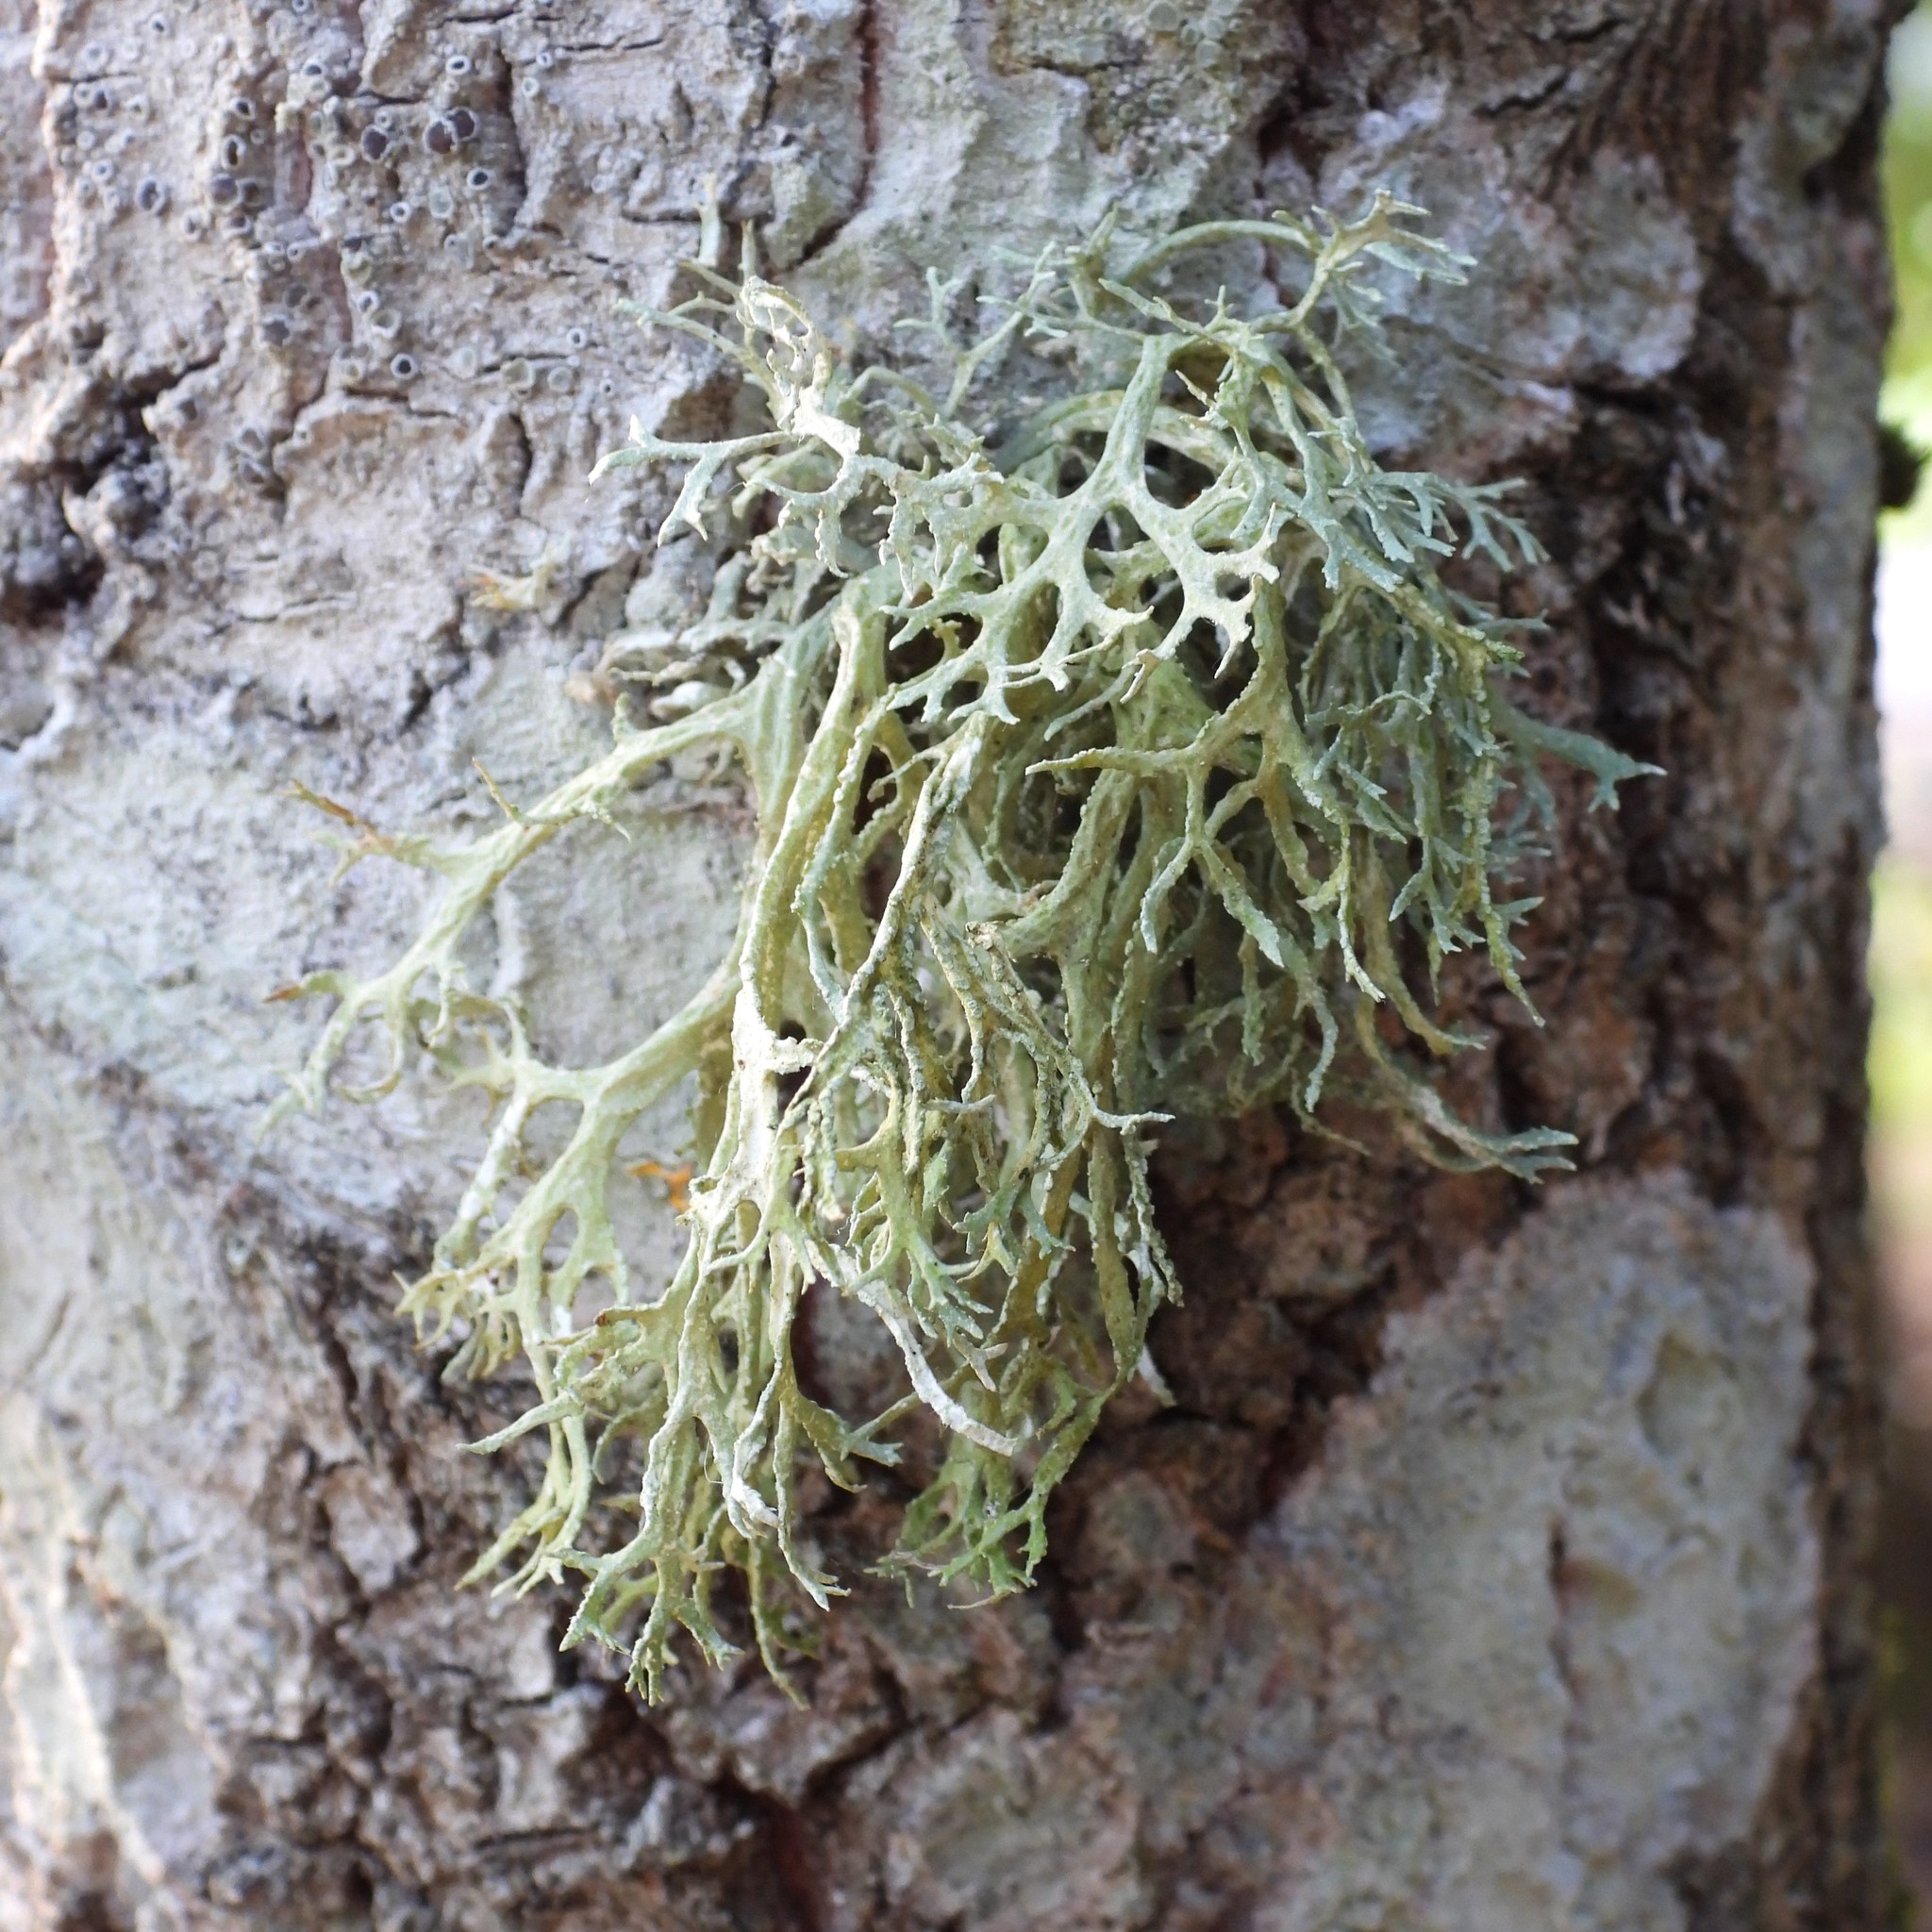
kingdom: Fungi
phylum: Ascomycota
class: Lecanoromycetes
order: Lecanorales
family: Parmeliaceae
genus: Evernia
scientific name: Evernia prunastri
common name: Oak moss
